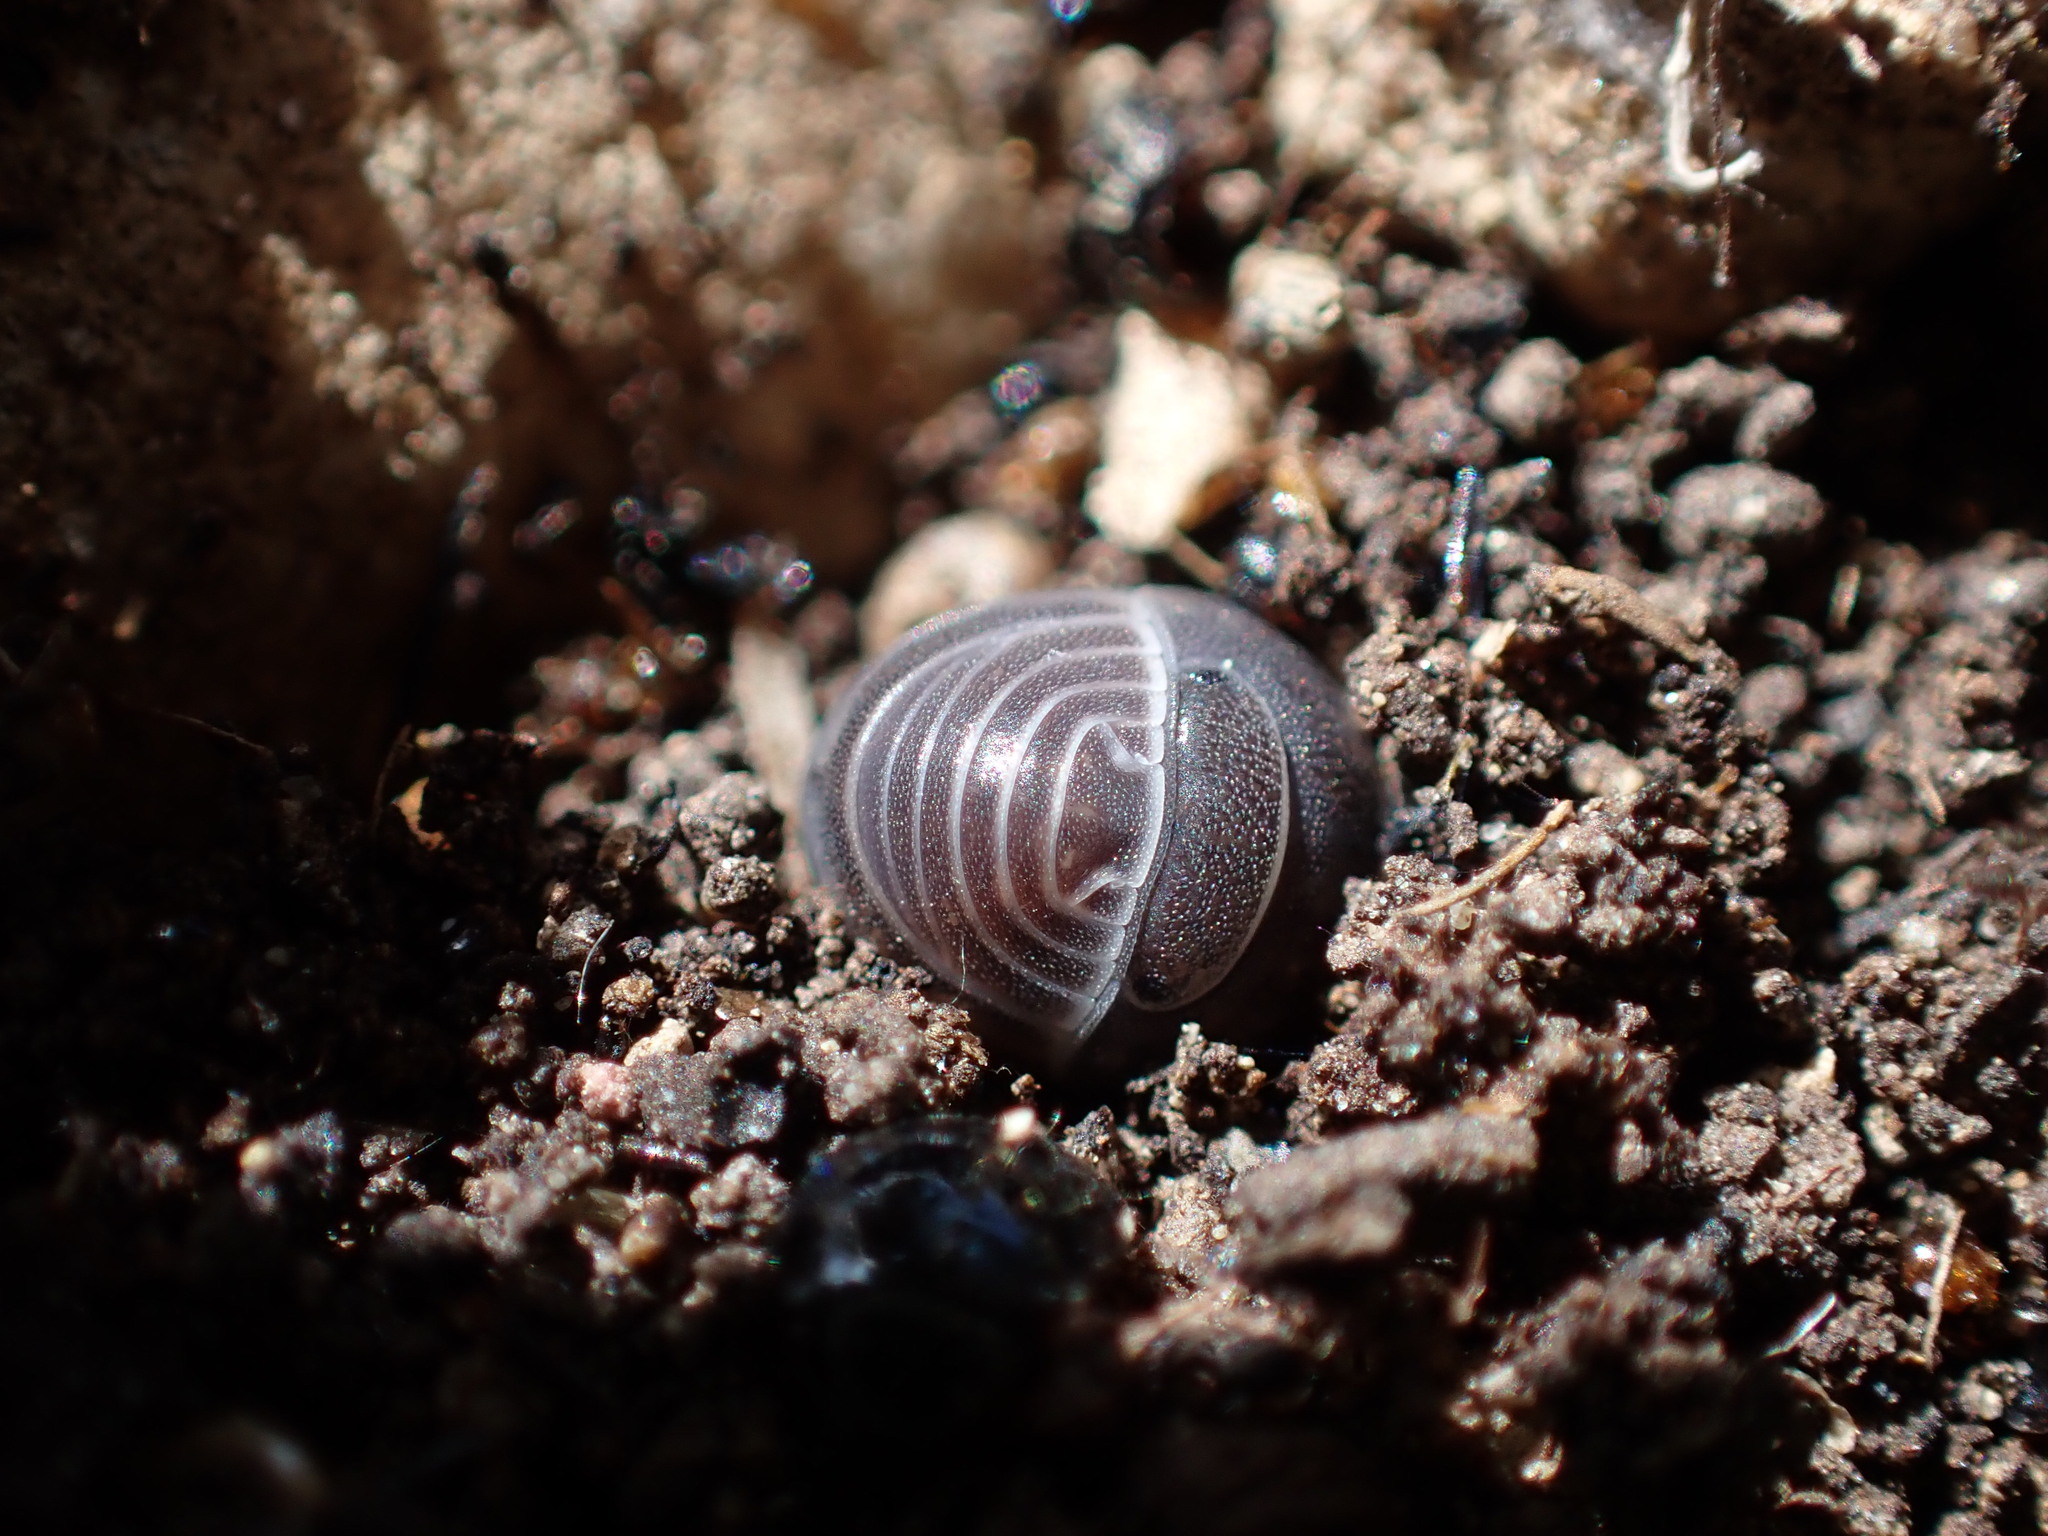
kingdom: Animalia
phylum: Arthropoda
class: Malacostraca
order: Isopoda
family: Armadillidae
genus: Armadillo
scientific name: Armadillo officinalis
